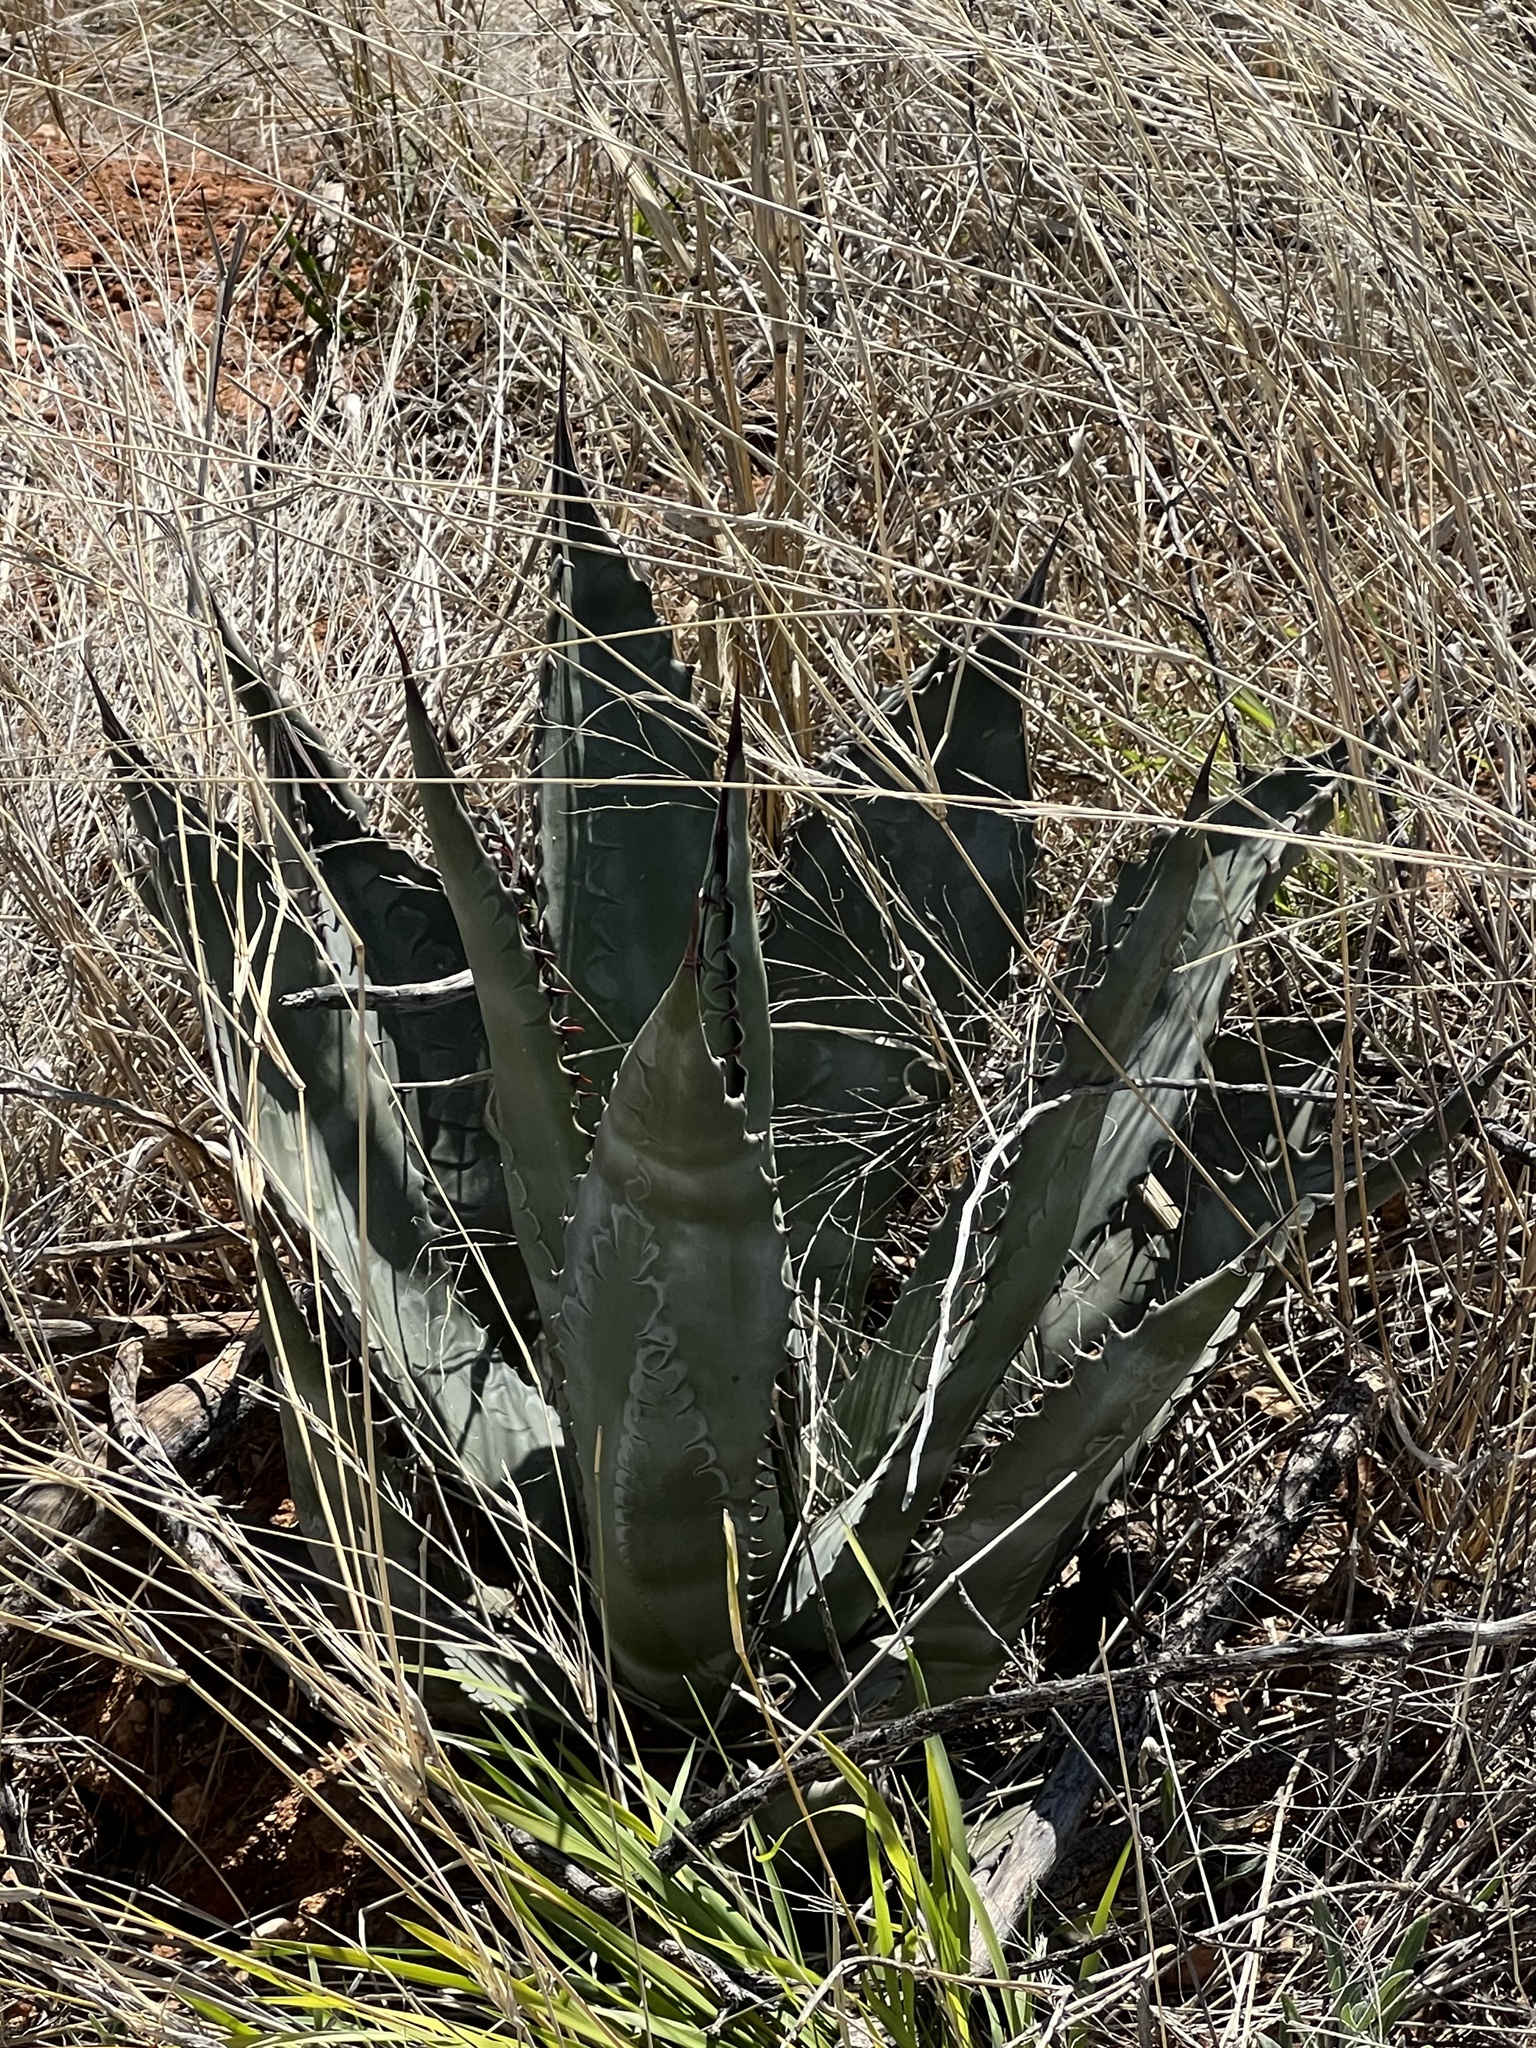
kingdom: Plantae
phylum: Tracheophyta
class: Liliopsida
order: Asparagales
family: Asparagaceae
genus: Agave
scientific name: Agave palmeri
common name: Palmer agave
